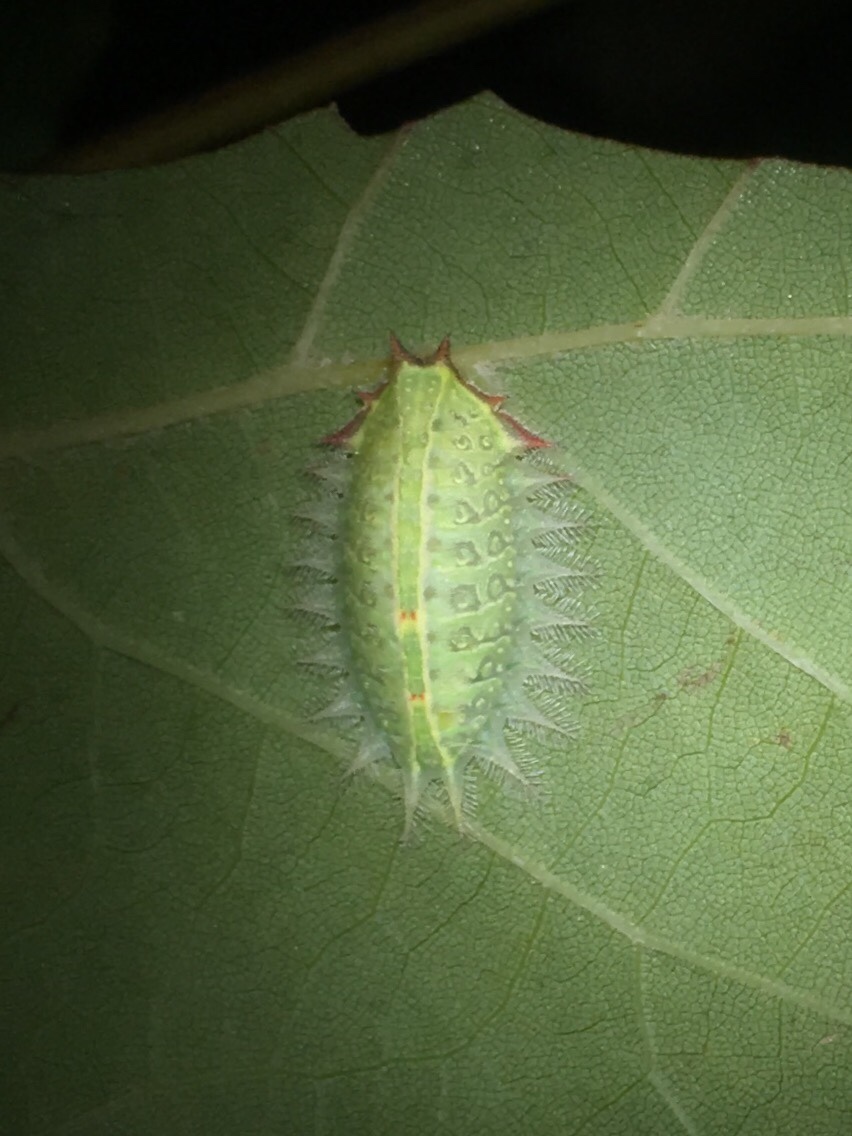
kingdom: Animalia
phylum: Arthropoda
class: Insecta
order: Lepidoptera
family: Limacodidae
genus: Isa
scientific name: Isa textula
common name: Crowned slug moth
